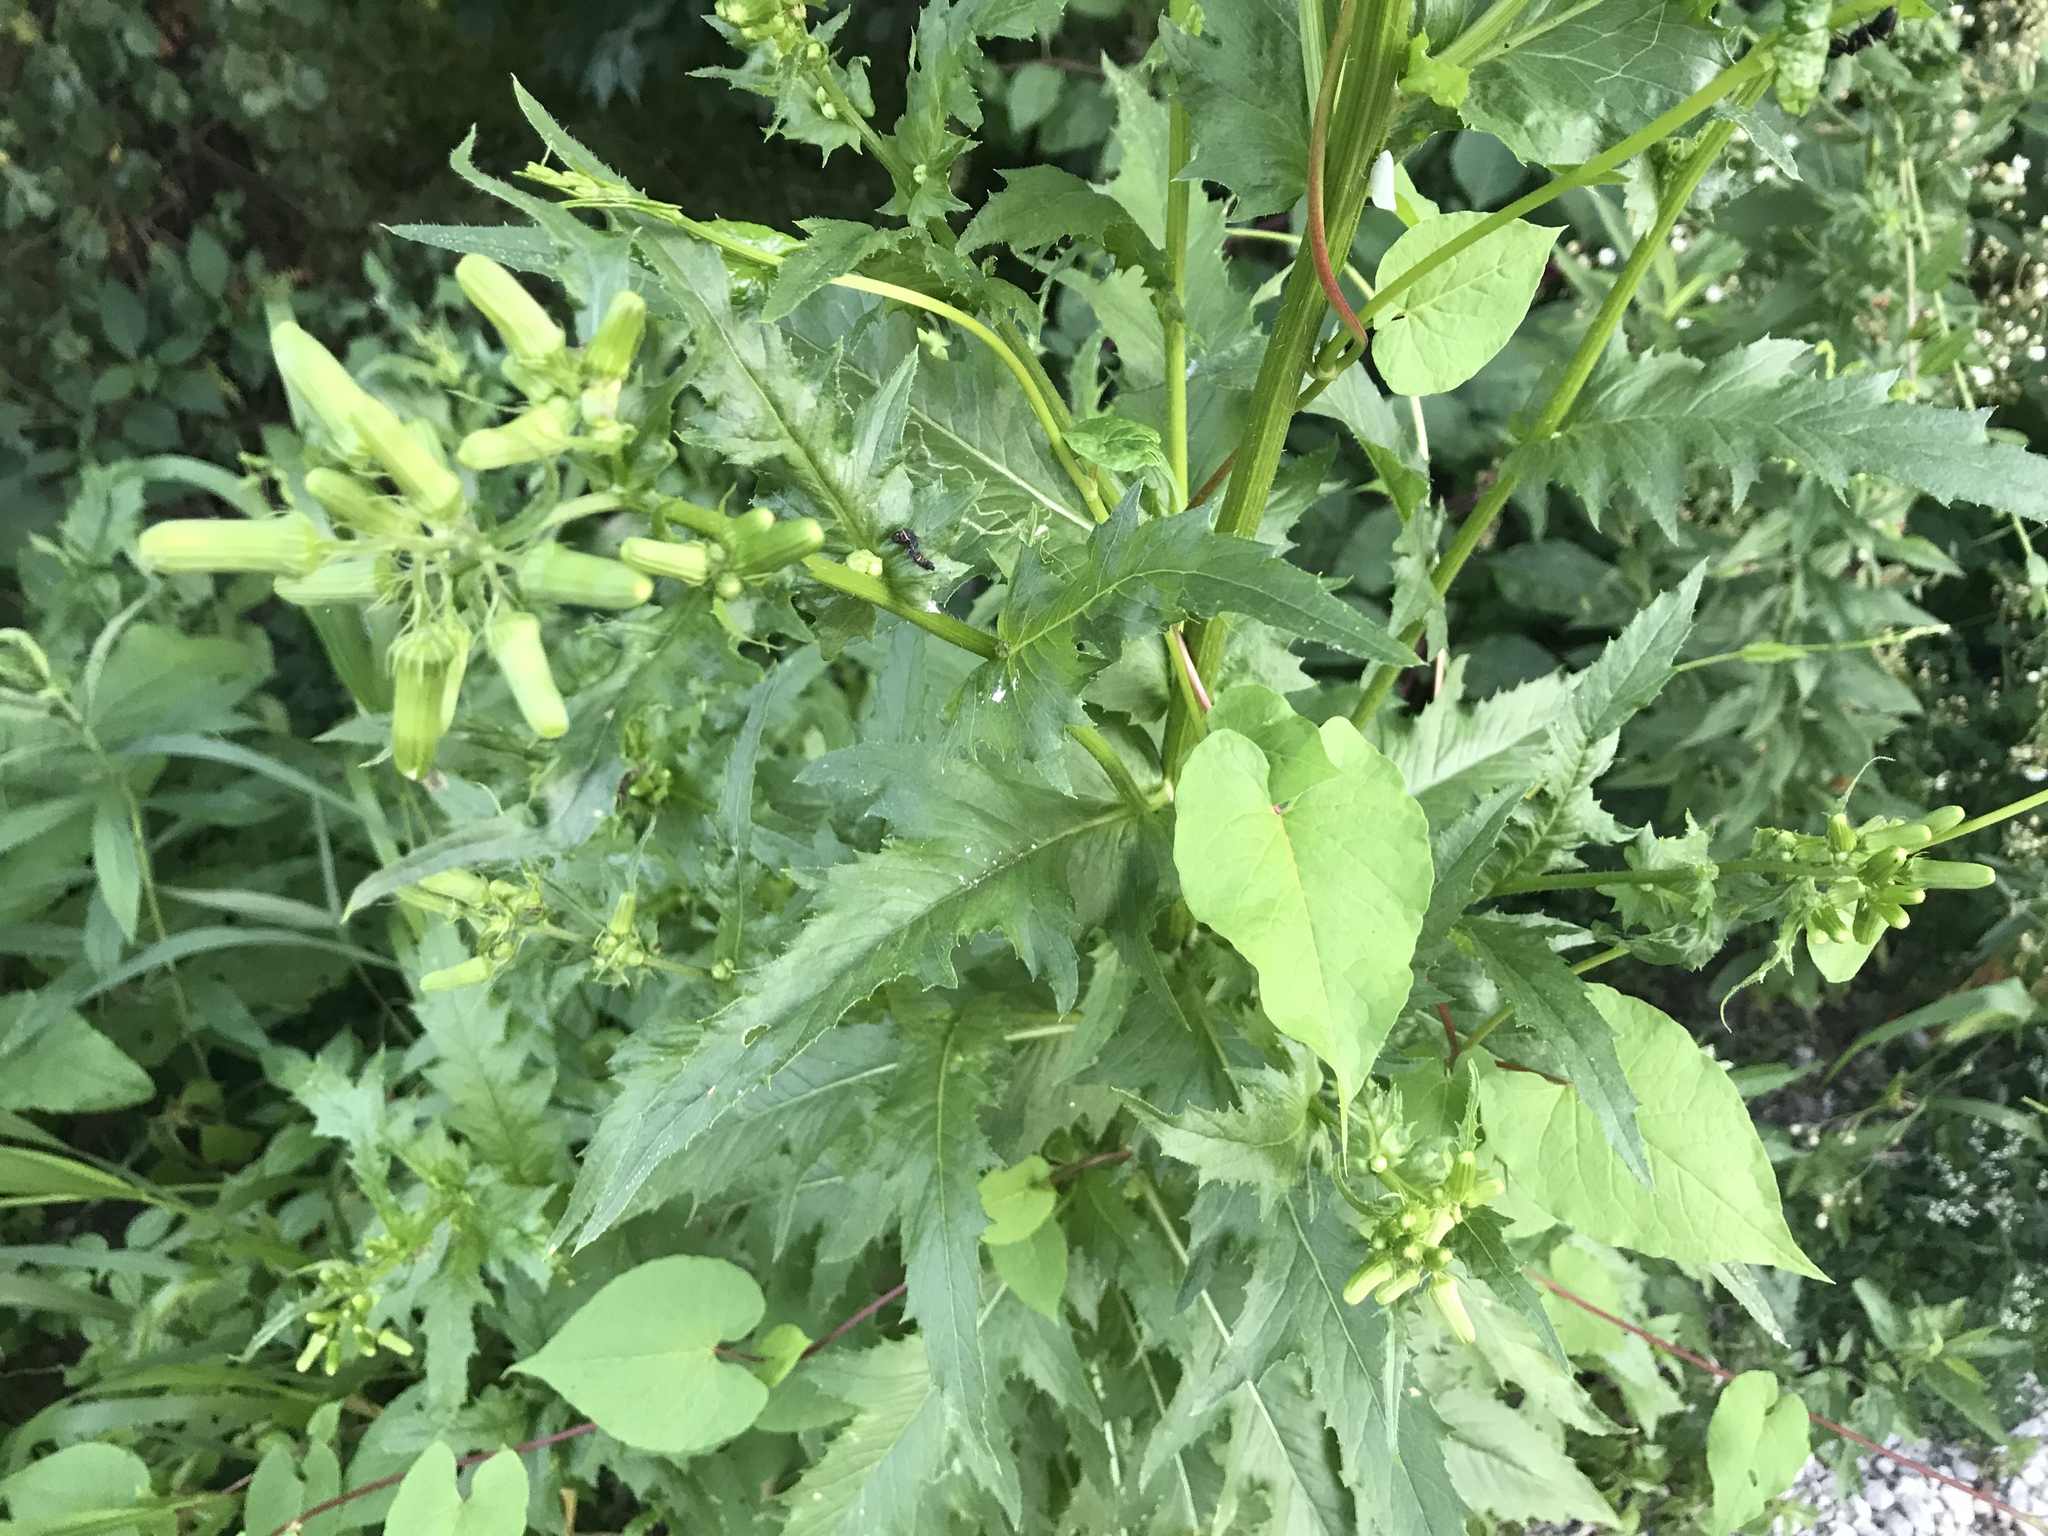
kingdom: Plantae
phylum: Tracheophyta
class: Magnoliopsida
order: Asterales
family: Asteraceae
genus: Erechtites
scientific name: Erechtites hieraciifolius
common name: American burnweed
